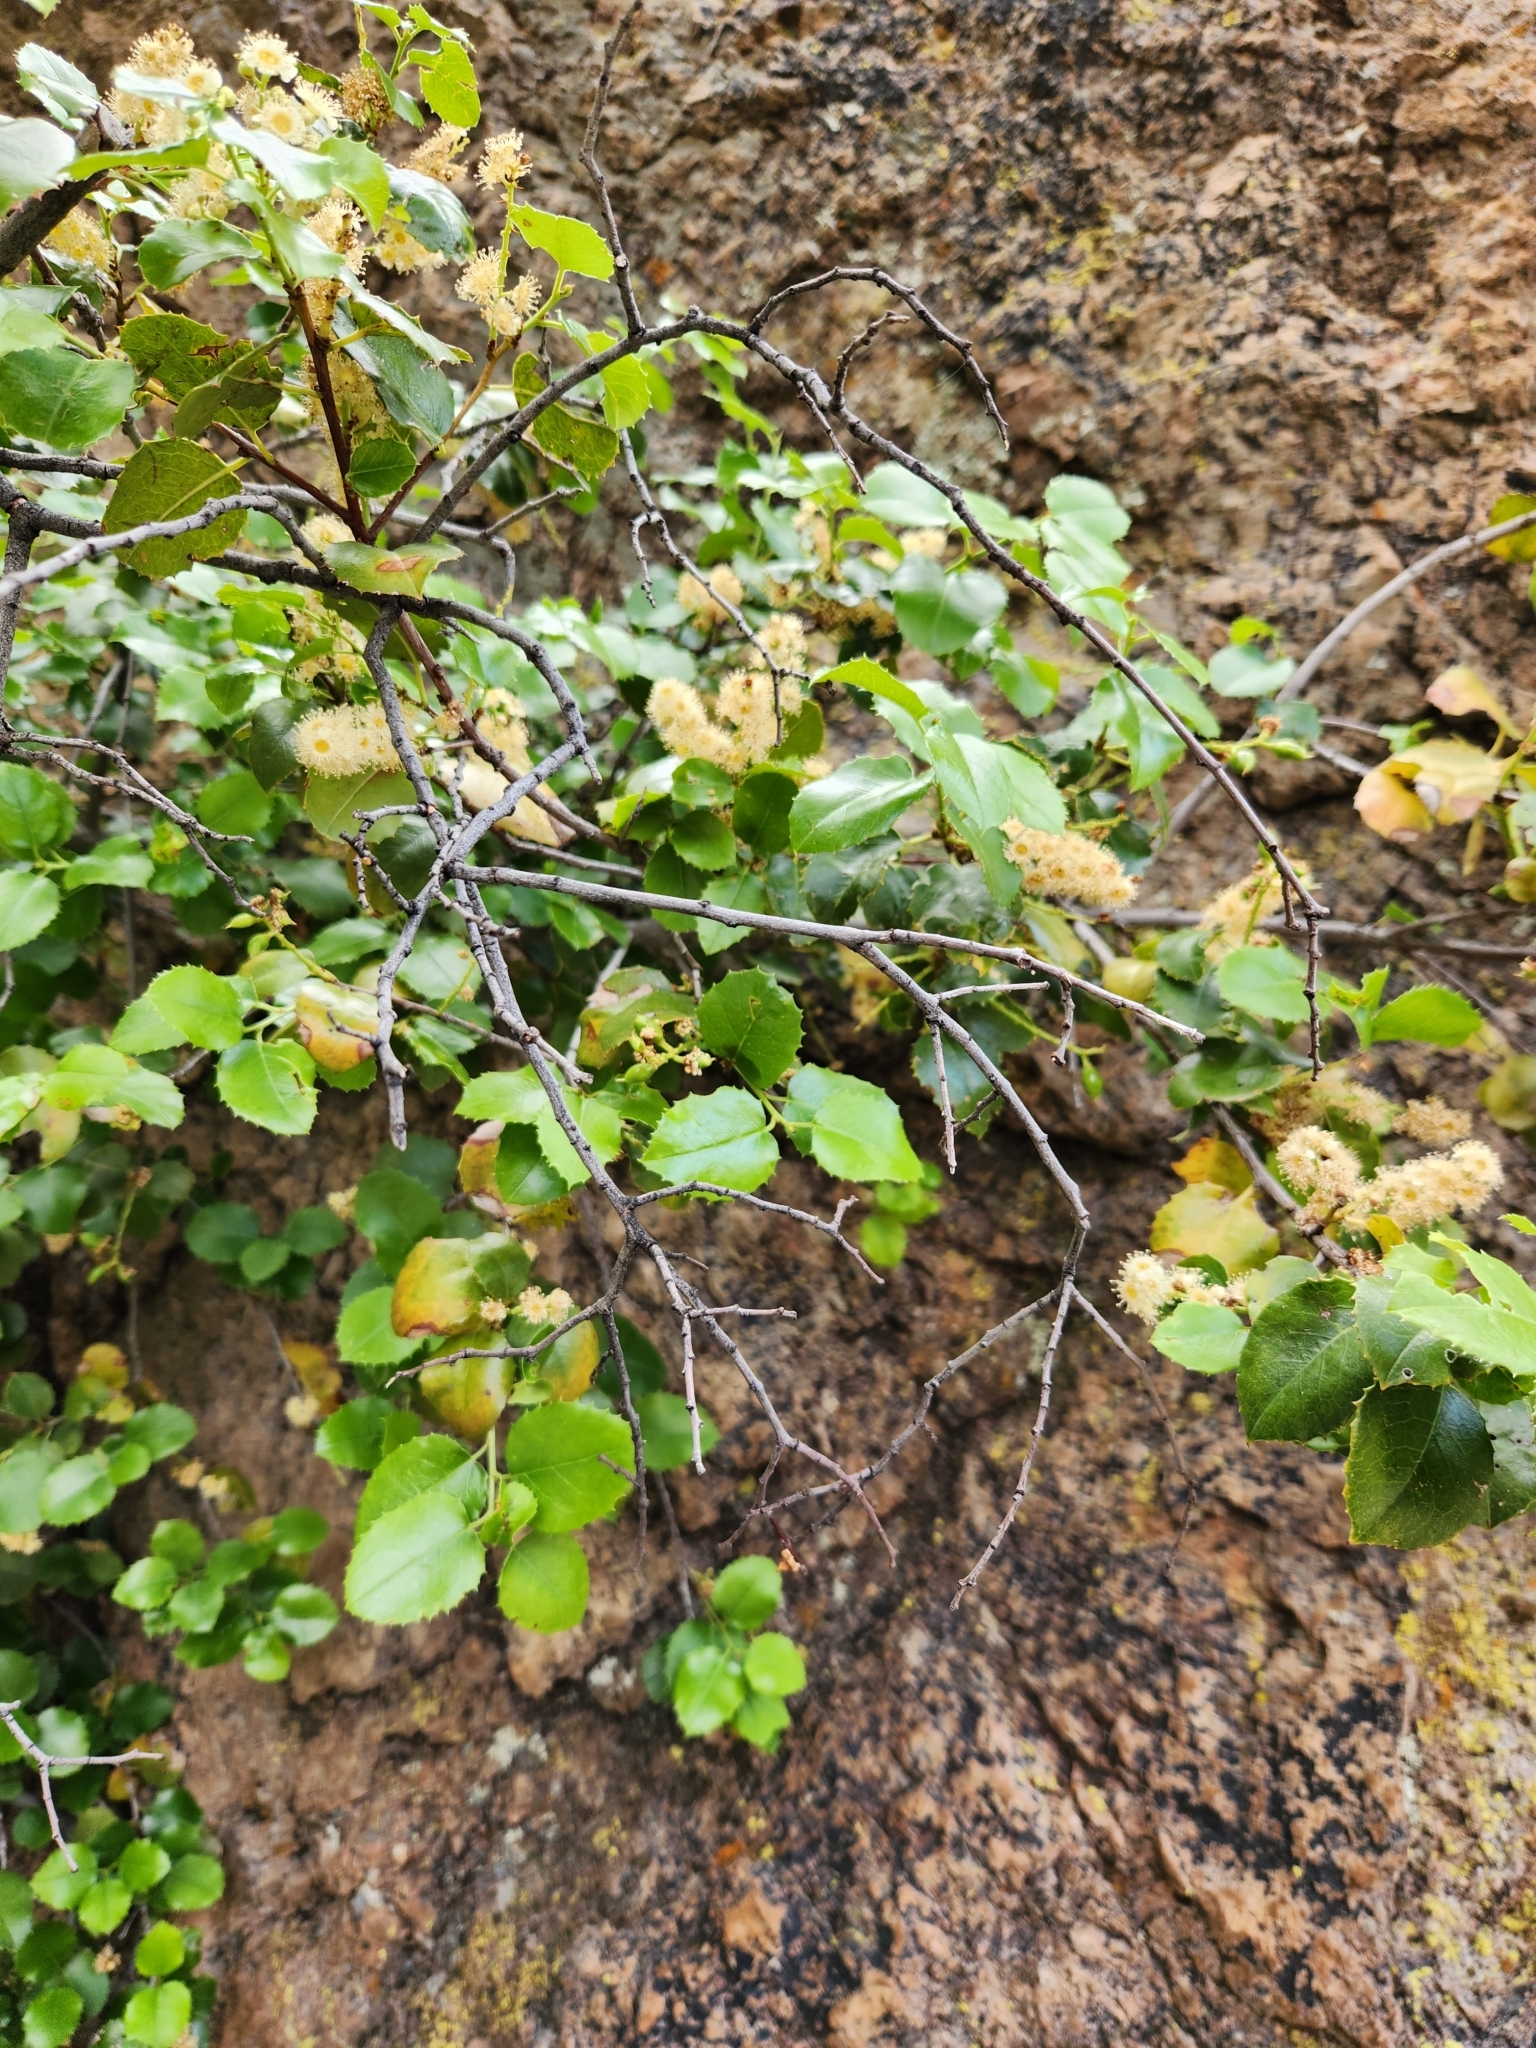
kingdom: Plantae
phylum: Tracheophyta
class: Magnoliopsida
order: Rosales
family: Rosaceae
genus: Prunus
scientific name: Prunus ilicifolia
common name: Hollyleaf cherry
